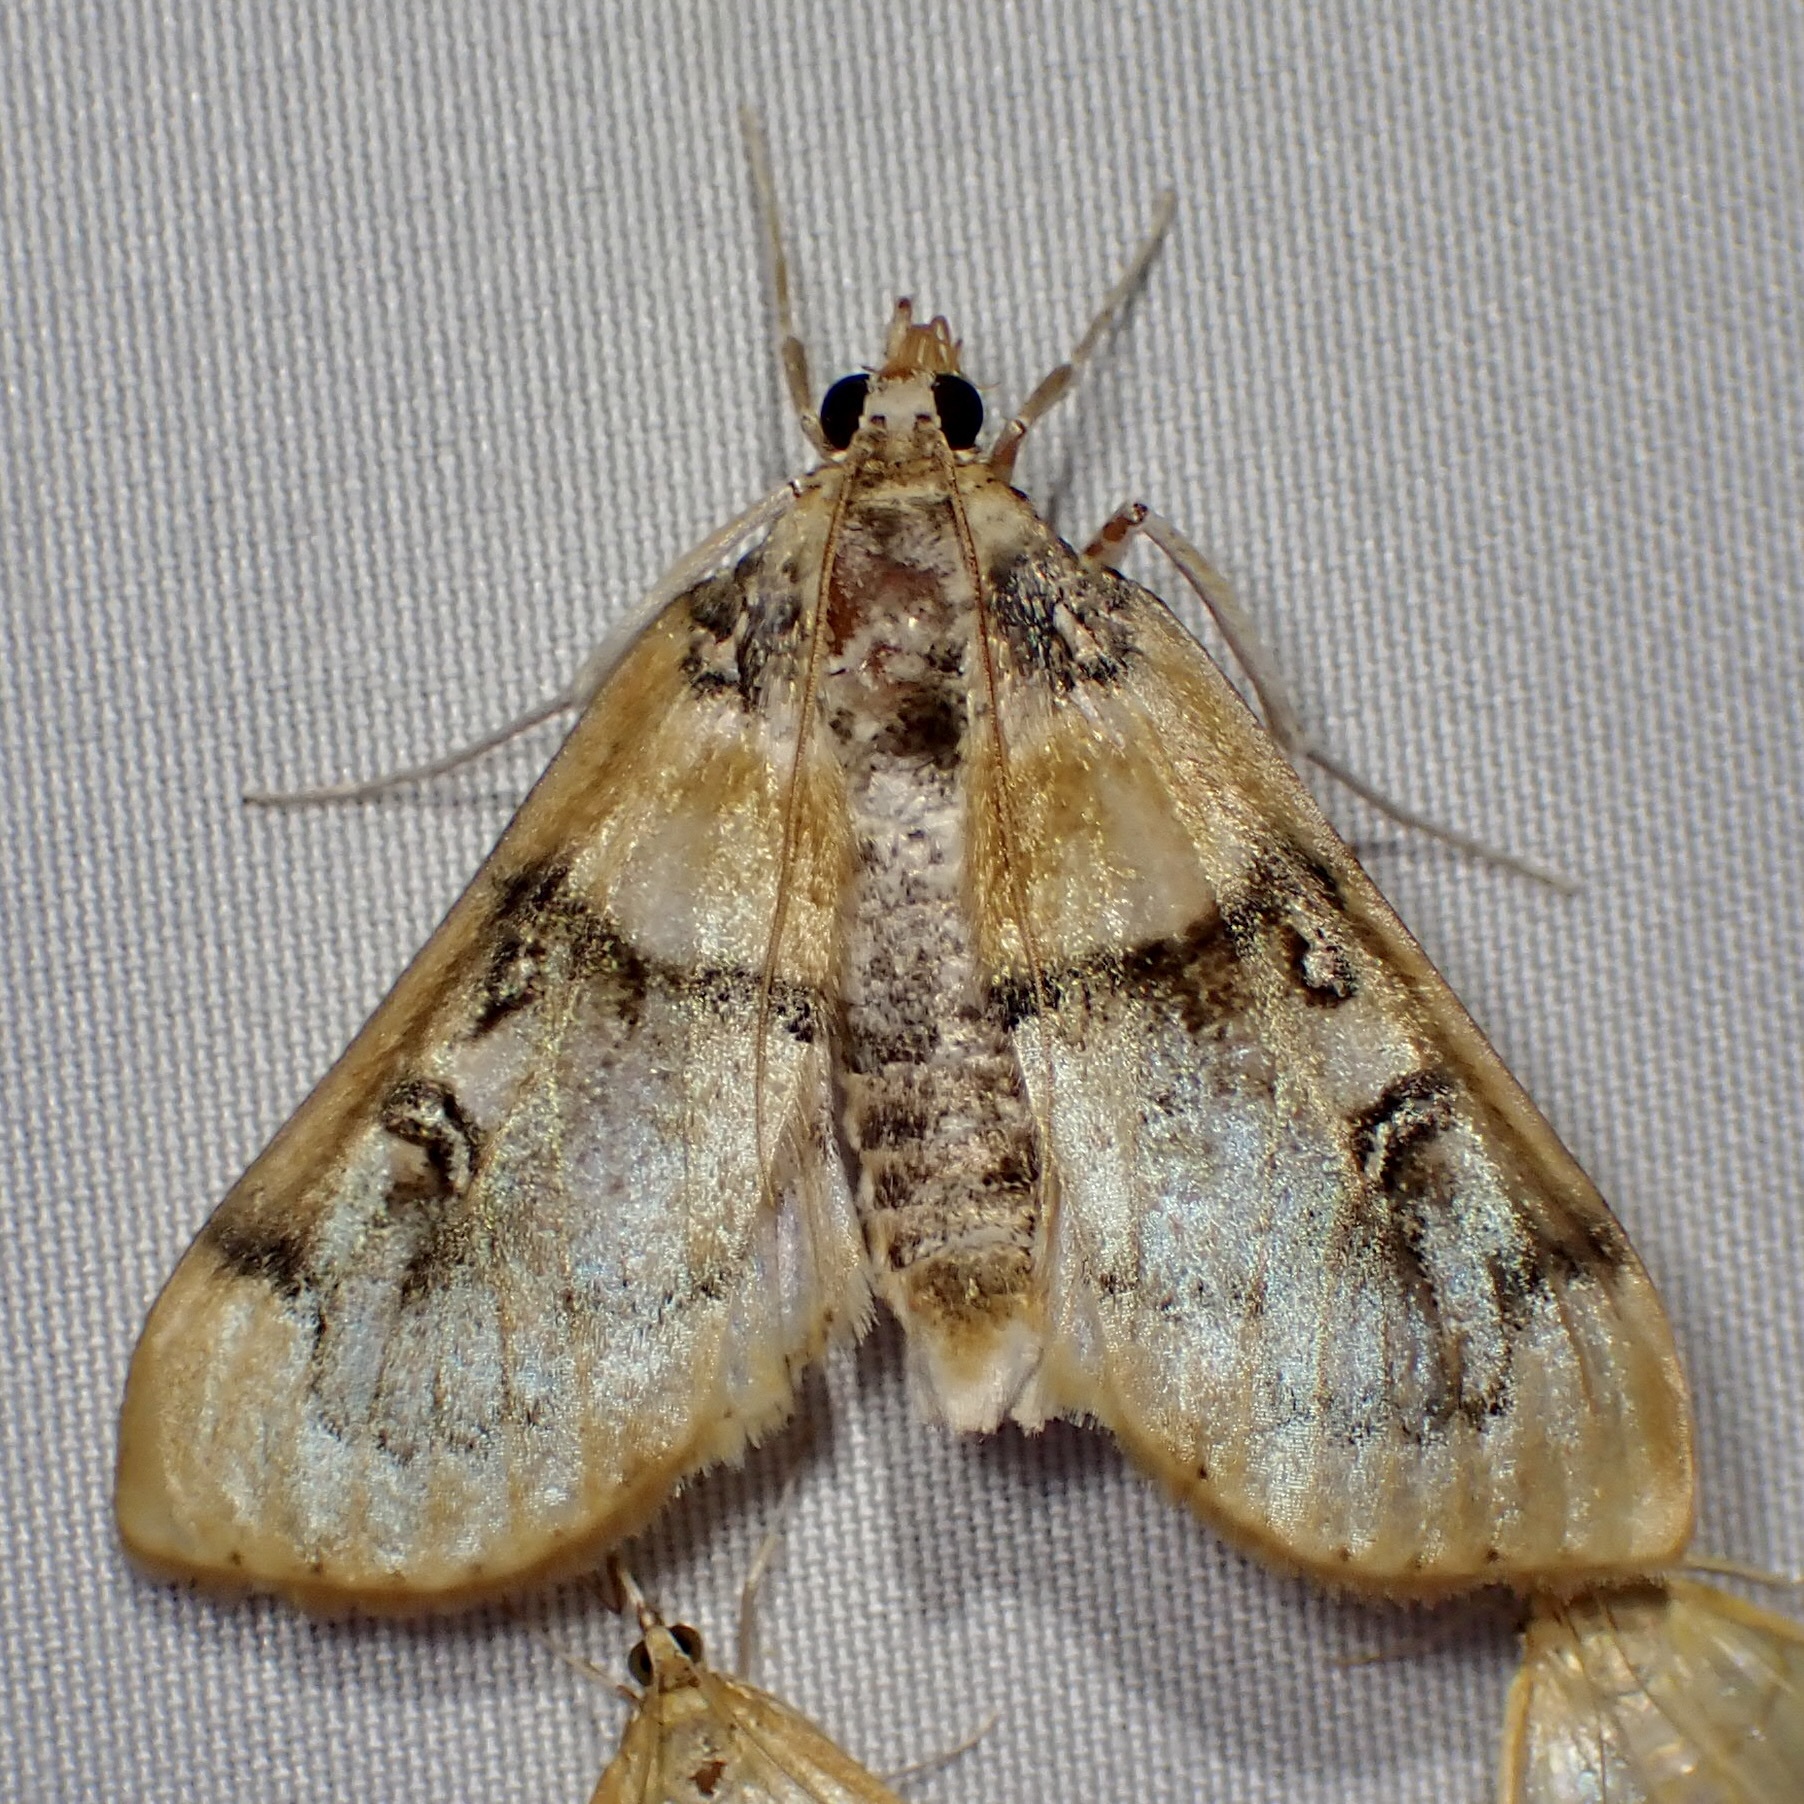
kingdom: Animalia
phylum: Arthropoda
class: Insecta
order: Lepidoptera
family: Crambidae
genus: Laniifera
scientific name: Laniifera cyclades
